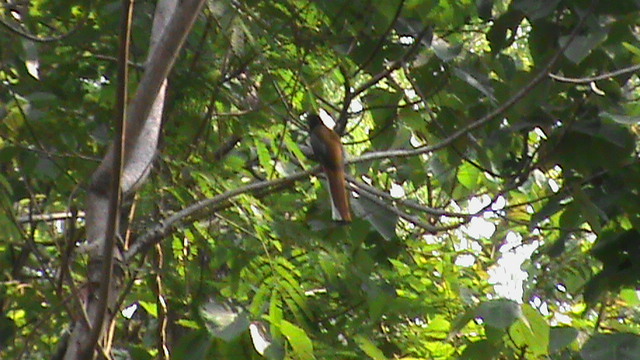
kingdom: Animalia
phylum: Chordata
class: Aves
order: Trogoniformes
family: Trogonidae
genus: Harpactes
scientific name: Harpactes fasciatus
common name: Malabar trogon
